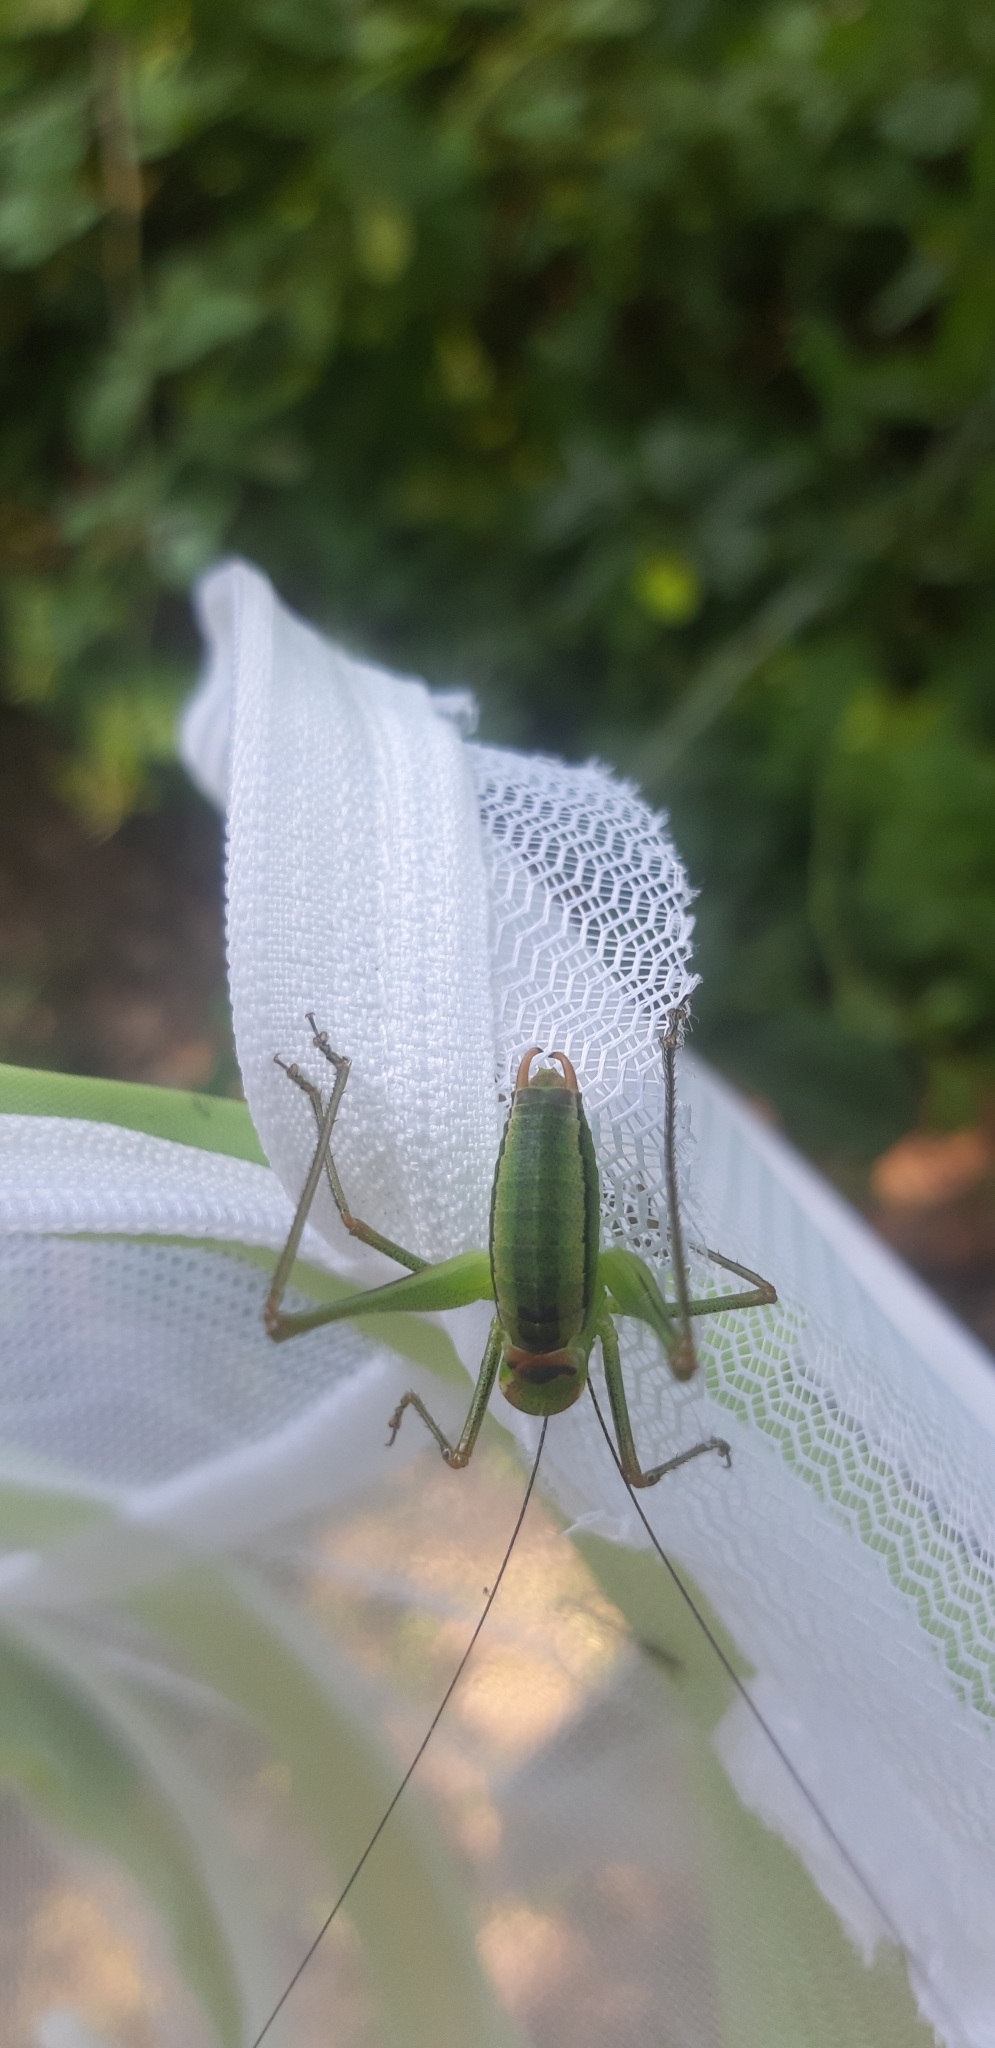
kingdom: Animalia
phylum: Arthropoda
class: Insecta
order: Orthoptera
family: Tettigoniidae
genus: Poecilimon
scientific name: Poecilimon superbus
